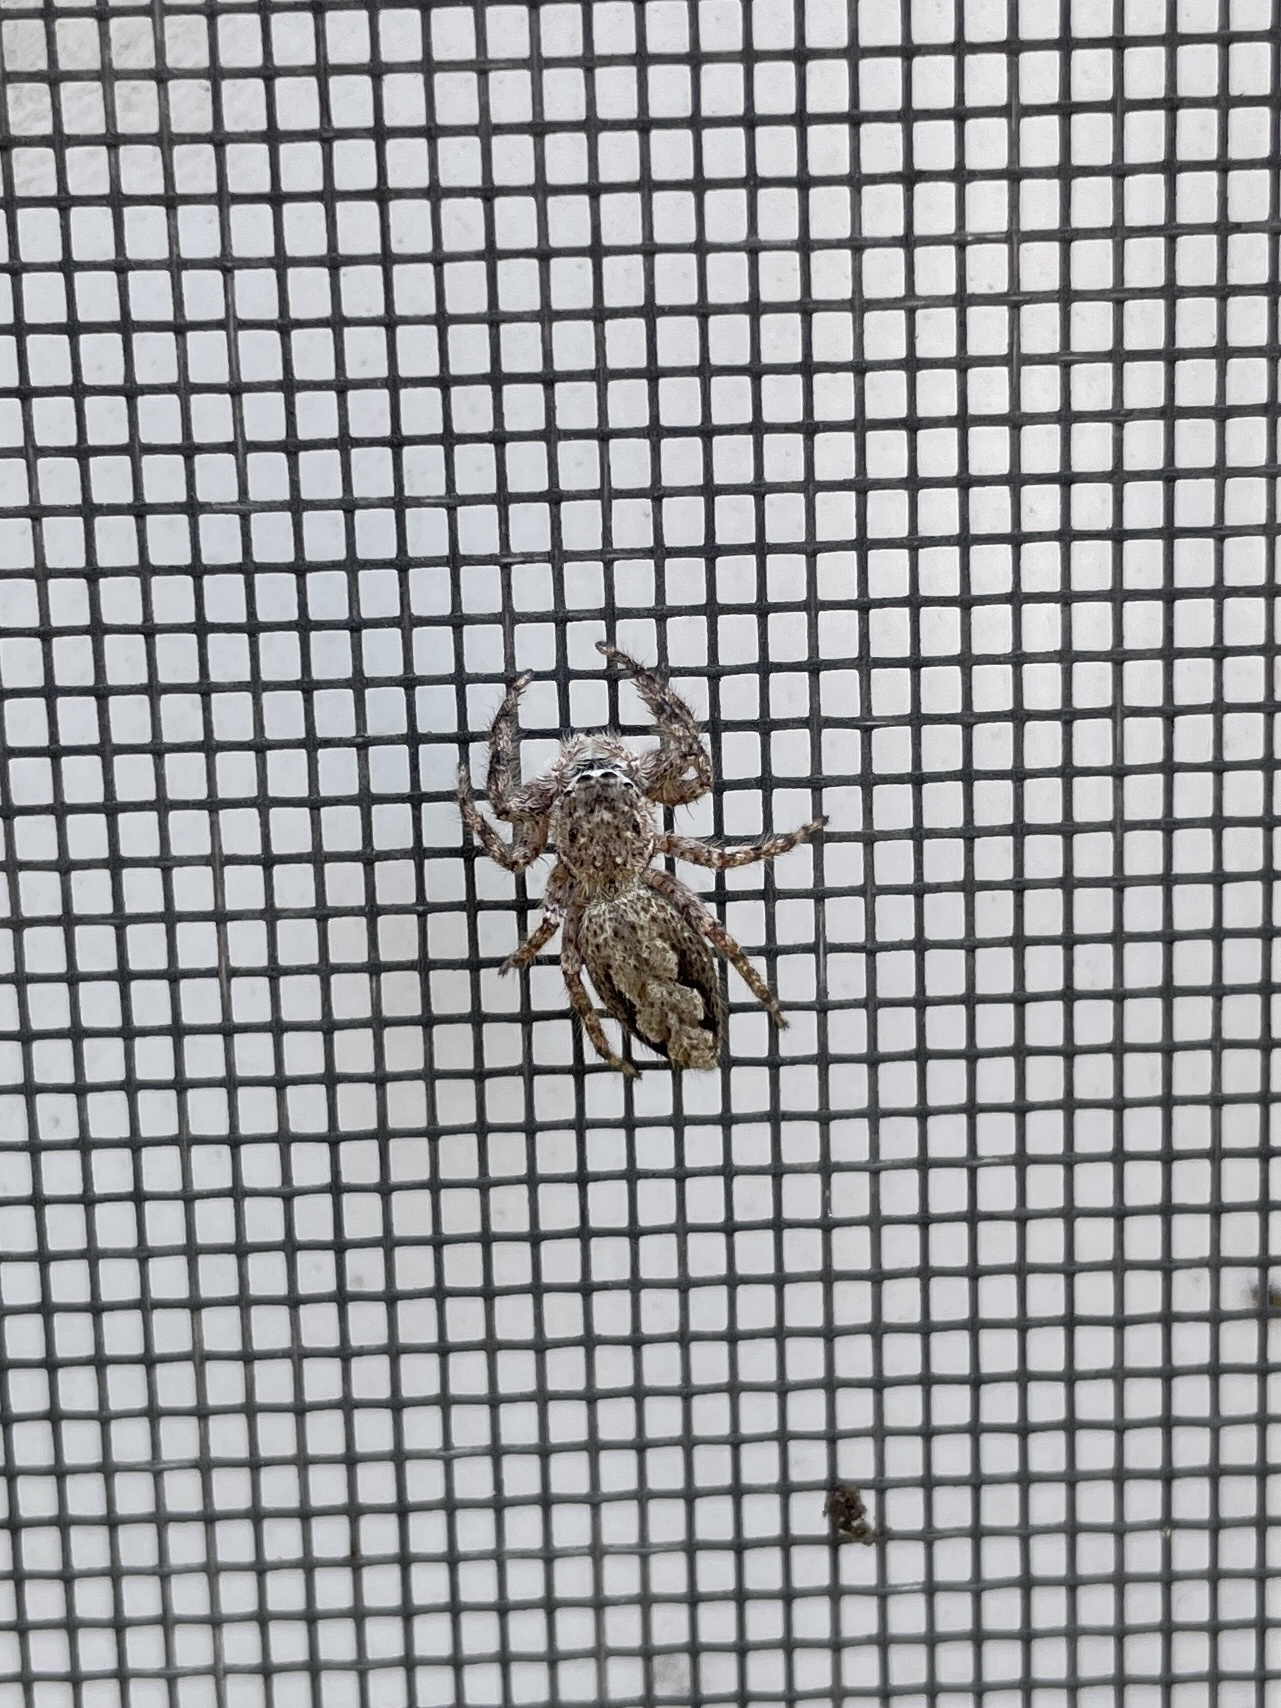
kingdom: Animalia
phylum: Arthropoda
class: Arachnida
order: Araneae
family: Salticidae
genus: Platycryptus
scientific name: Platycryptus undatus
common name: Tan jumping spider
